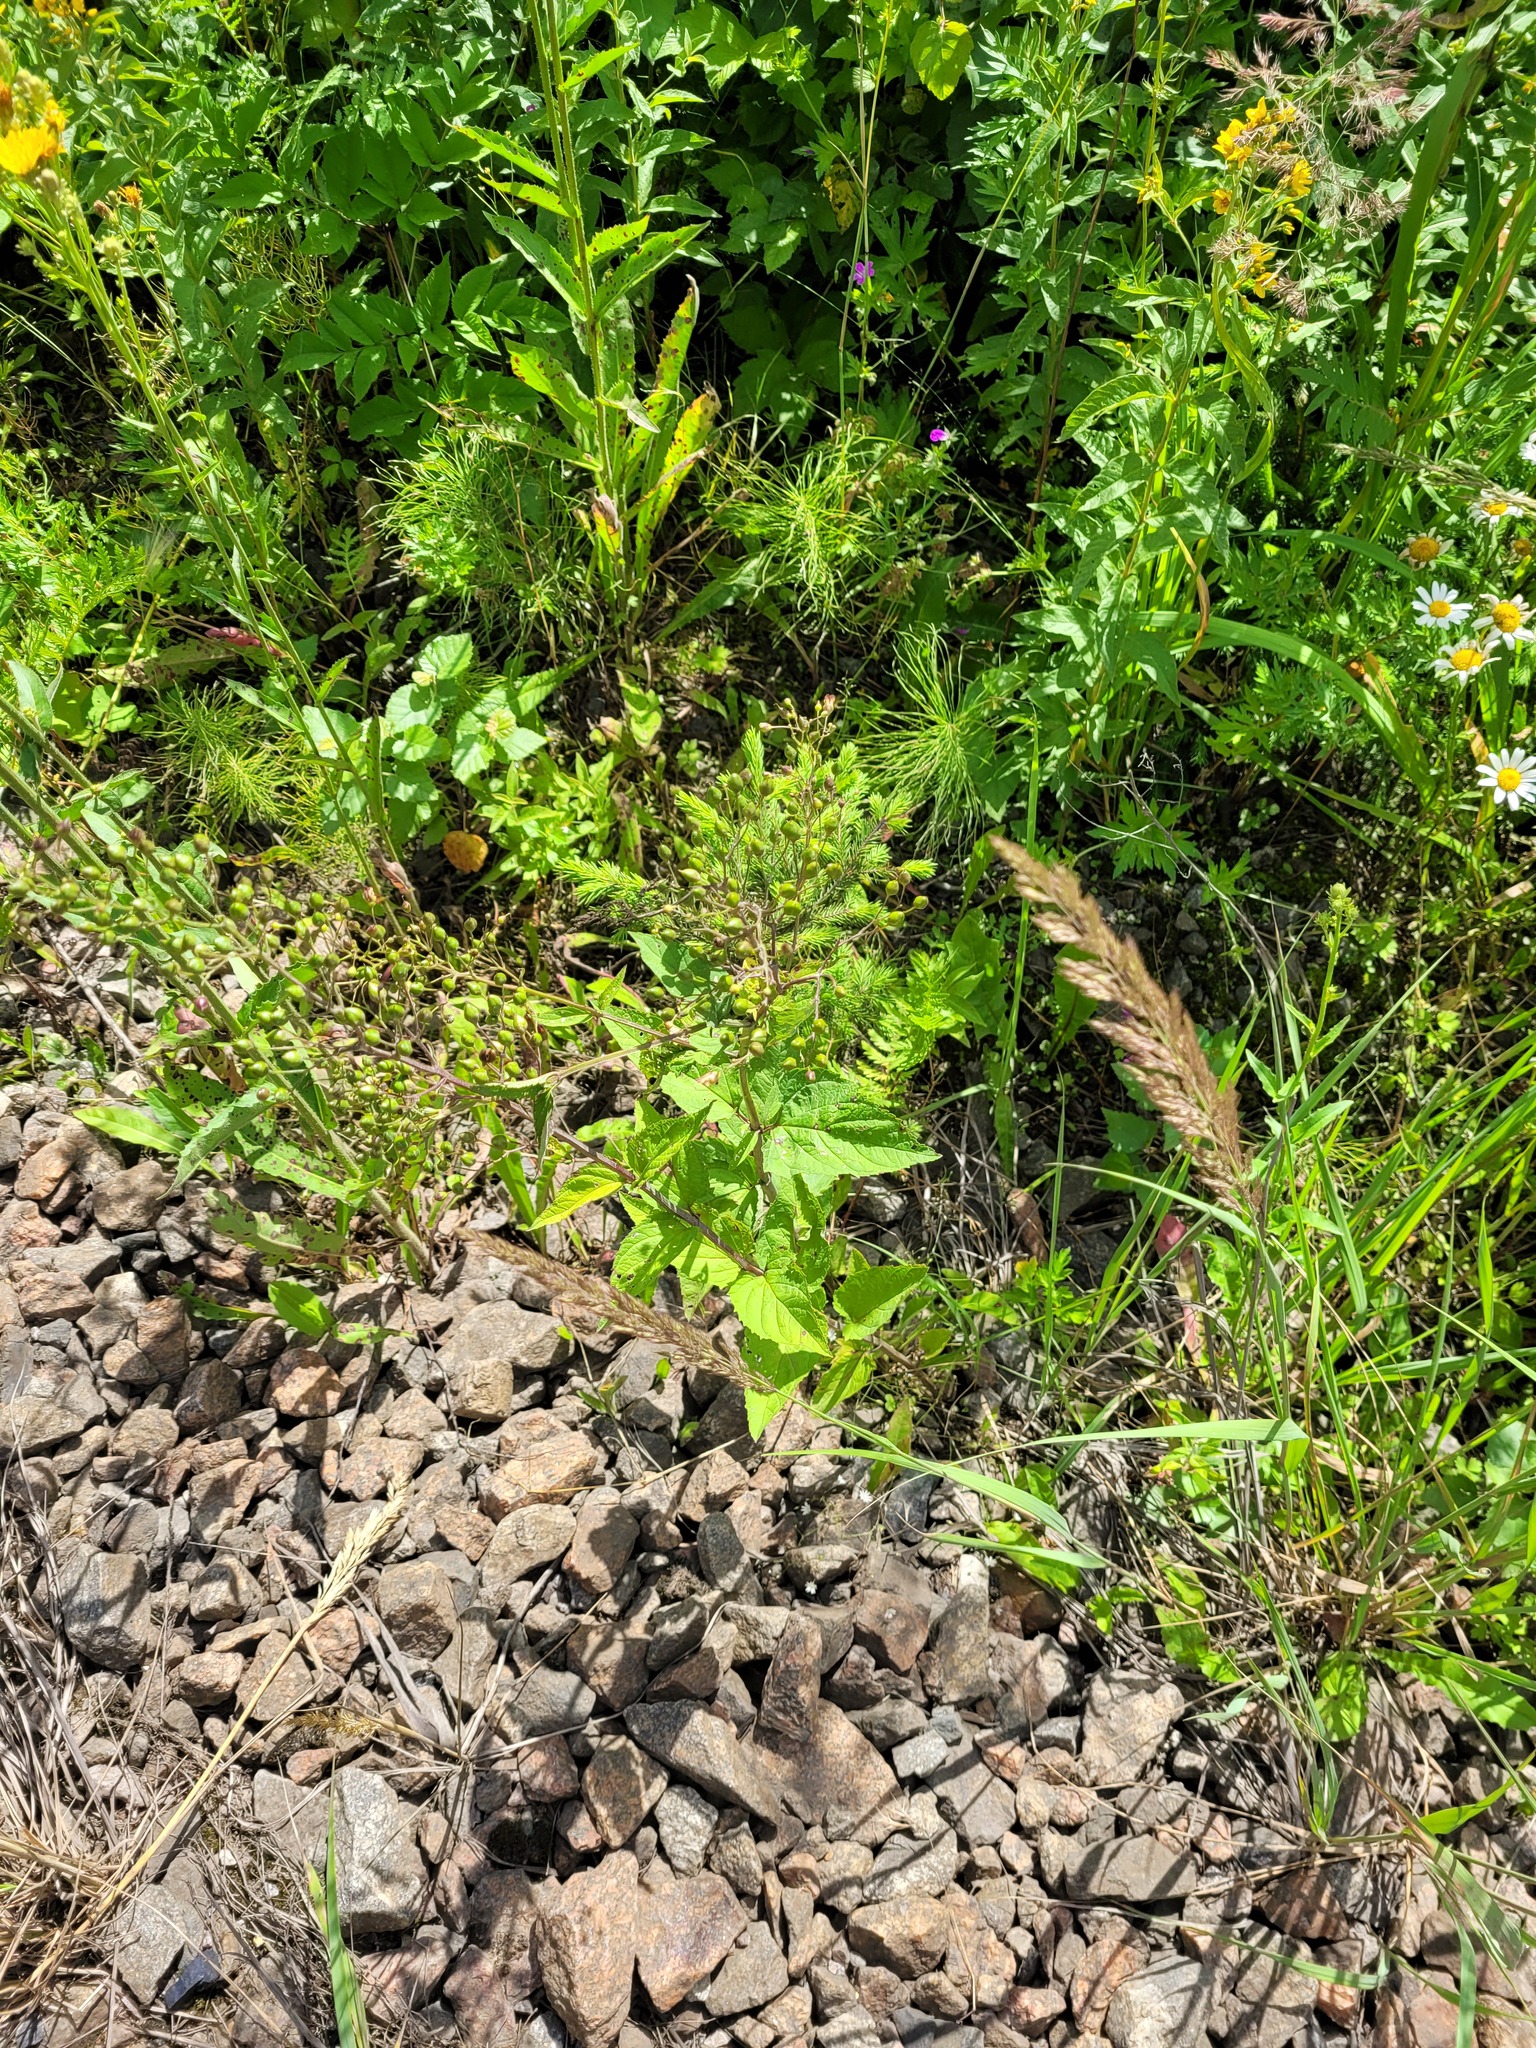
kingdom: Plantae
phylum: Tracheophyta
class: Magnoliopsida
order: Lamiales
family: Scrophulariaceae
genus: Scrophularia
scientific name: Scrophularia nodosa
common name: Common figwort
